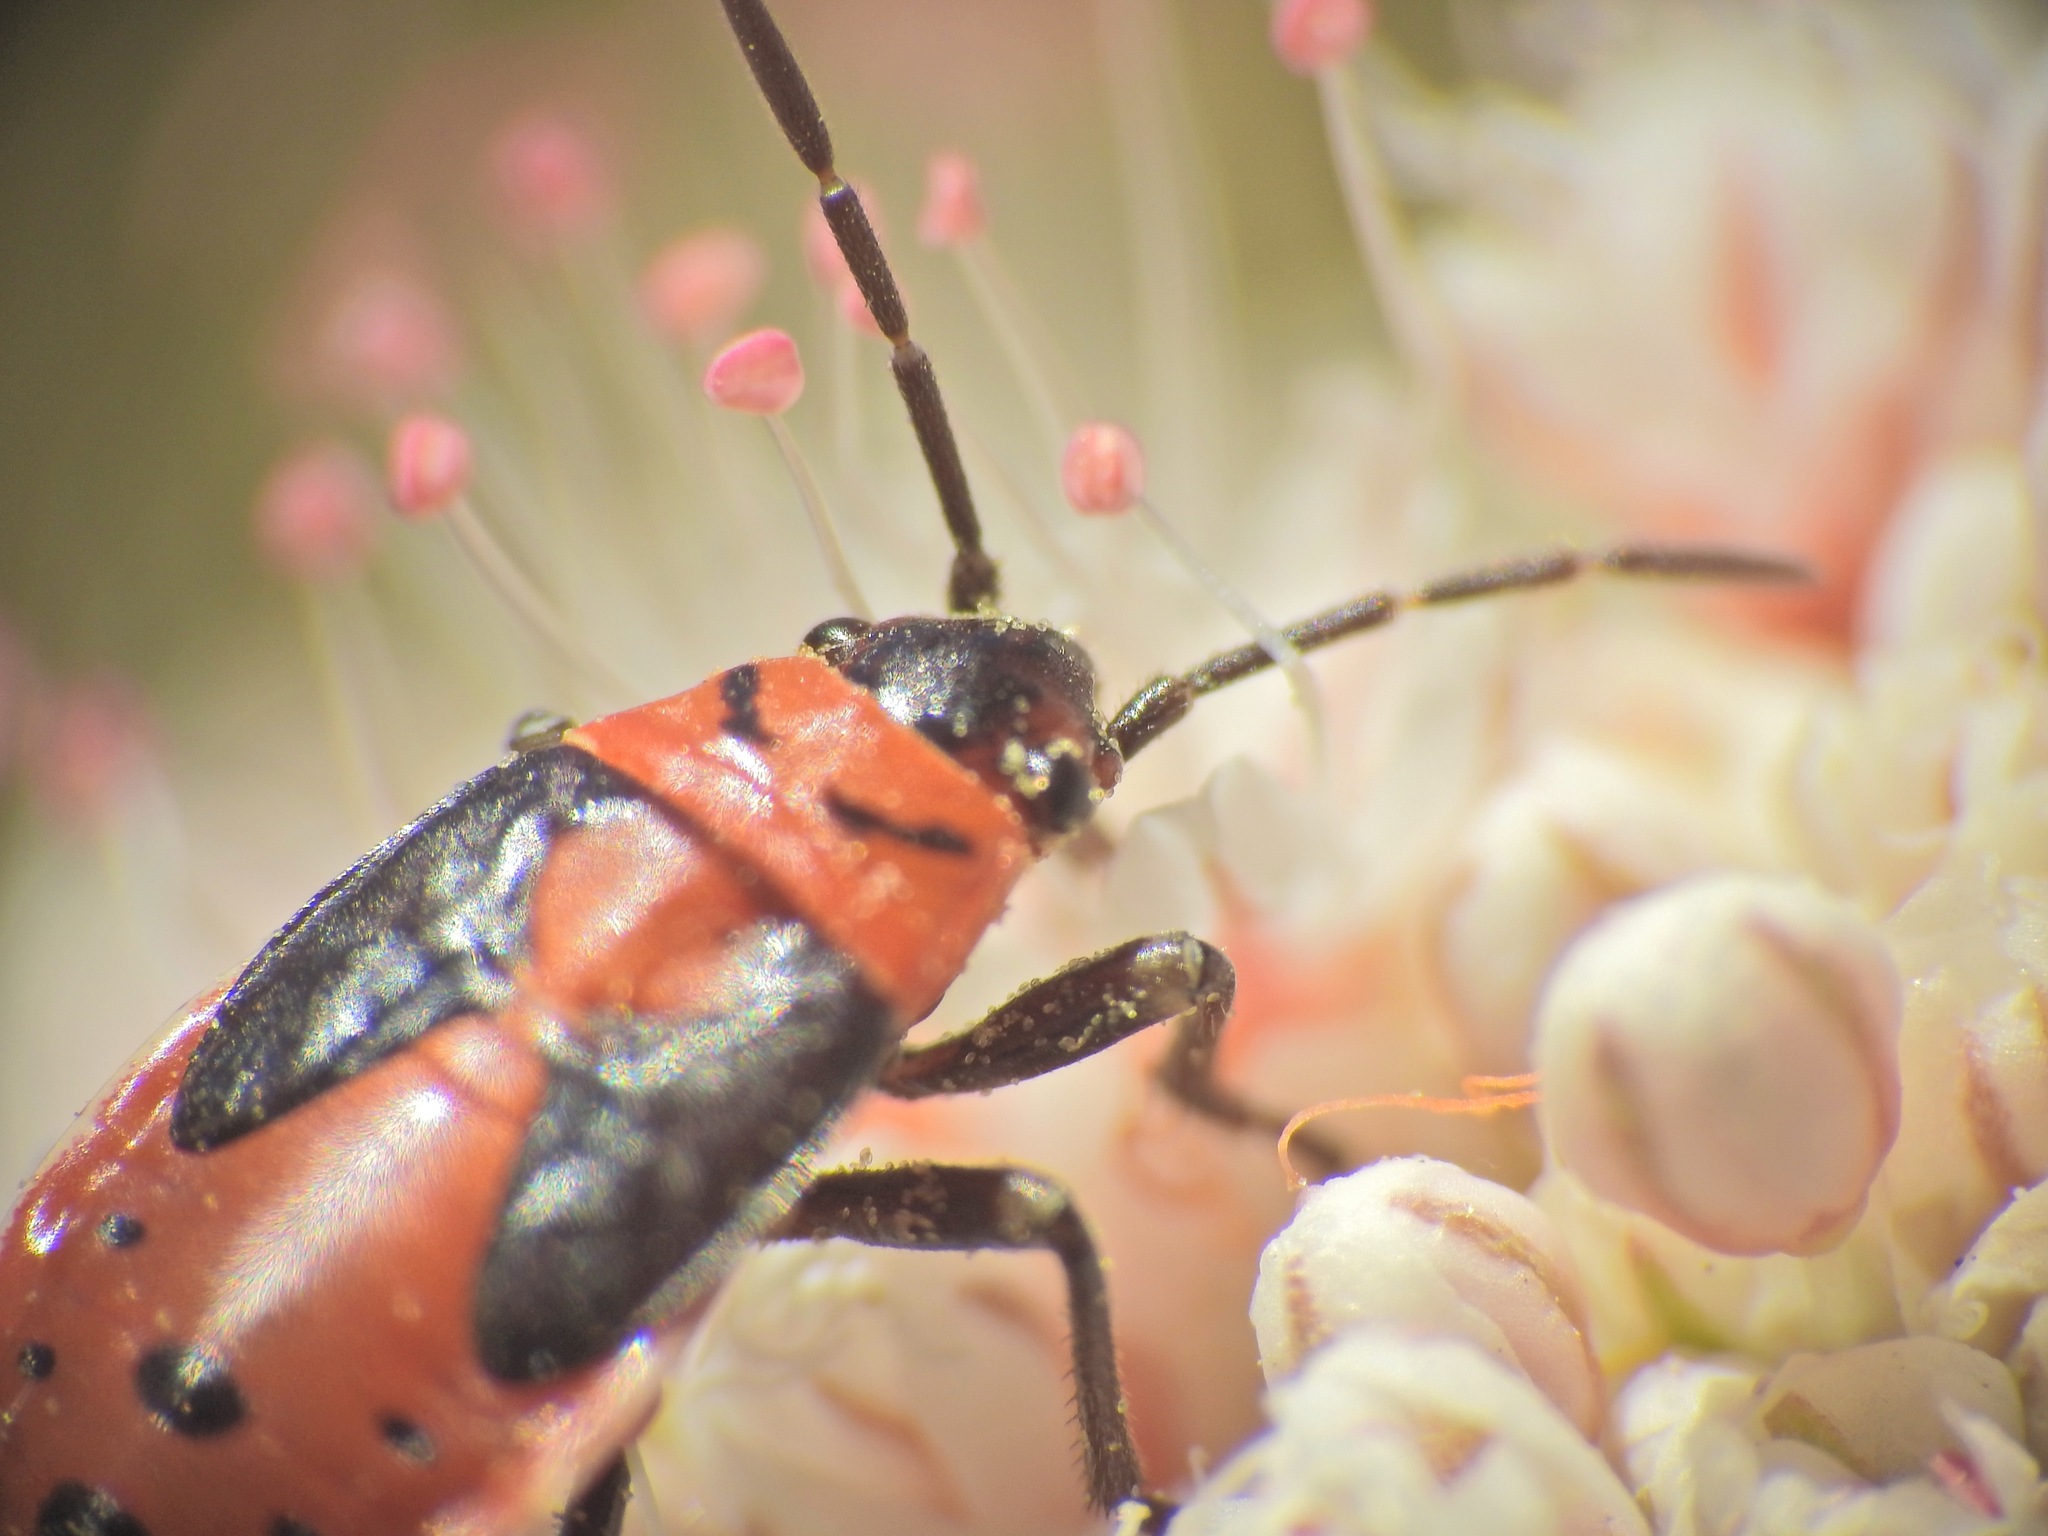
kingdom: Animalia
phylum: Arthropoda
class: Insecta
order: Hemiptera
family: Lygaeidae
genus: Lygaeus
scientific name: Lygaeus kalmii
